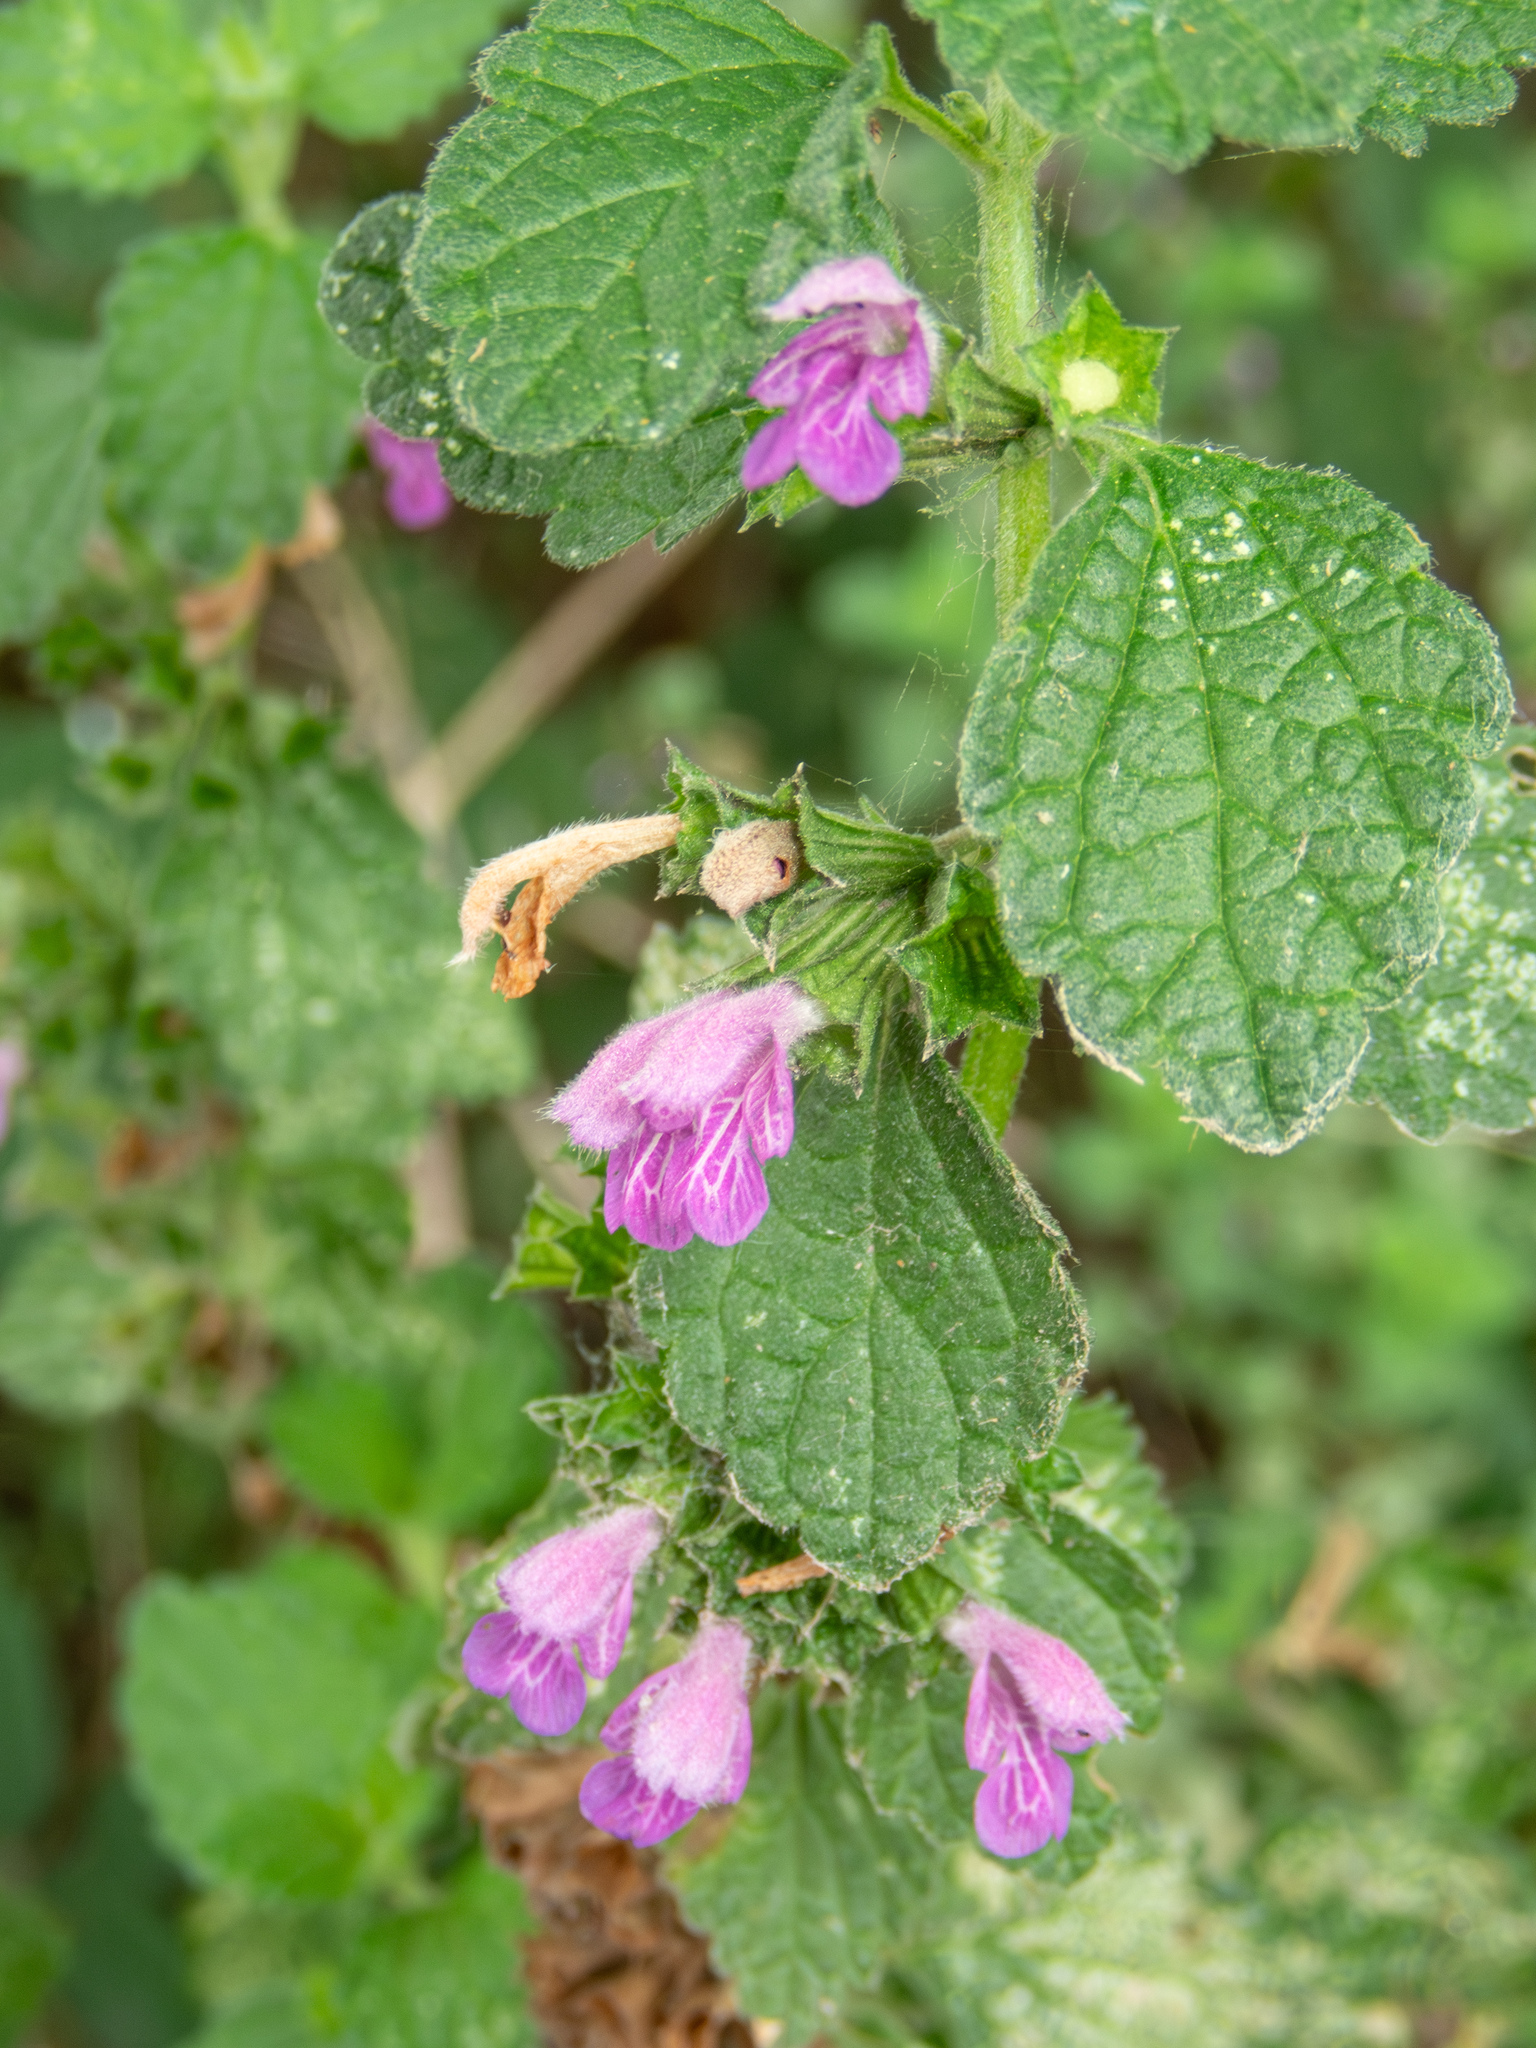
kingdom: Plantae
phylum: Tracheophyta
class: Magnoliopsida
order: Lamiales
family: Lamiaceae
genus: Ballota
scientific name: Ballota nigra
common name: Black horehound
